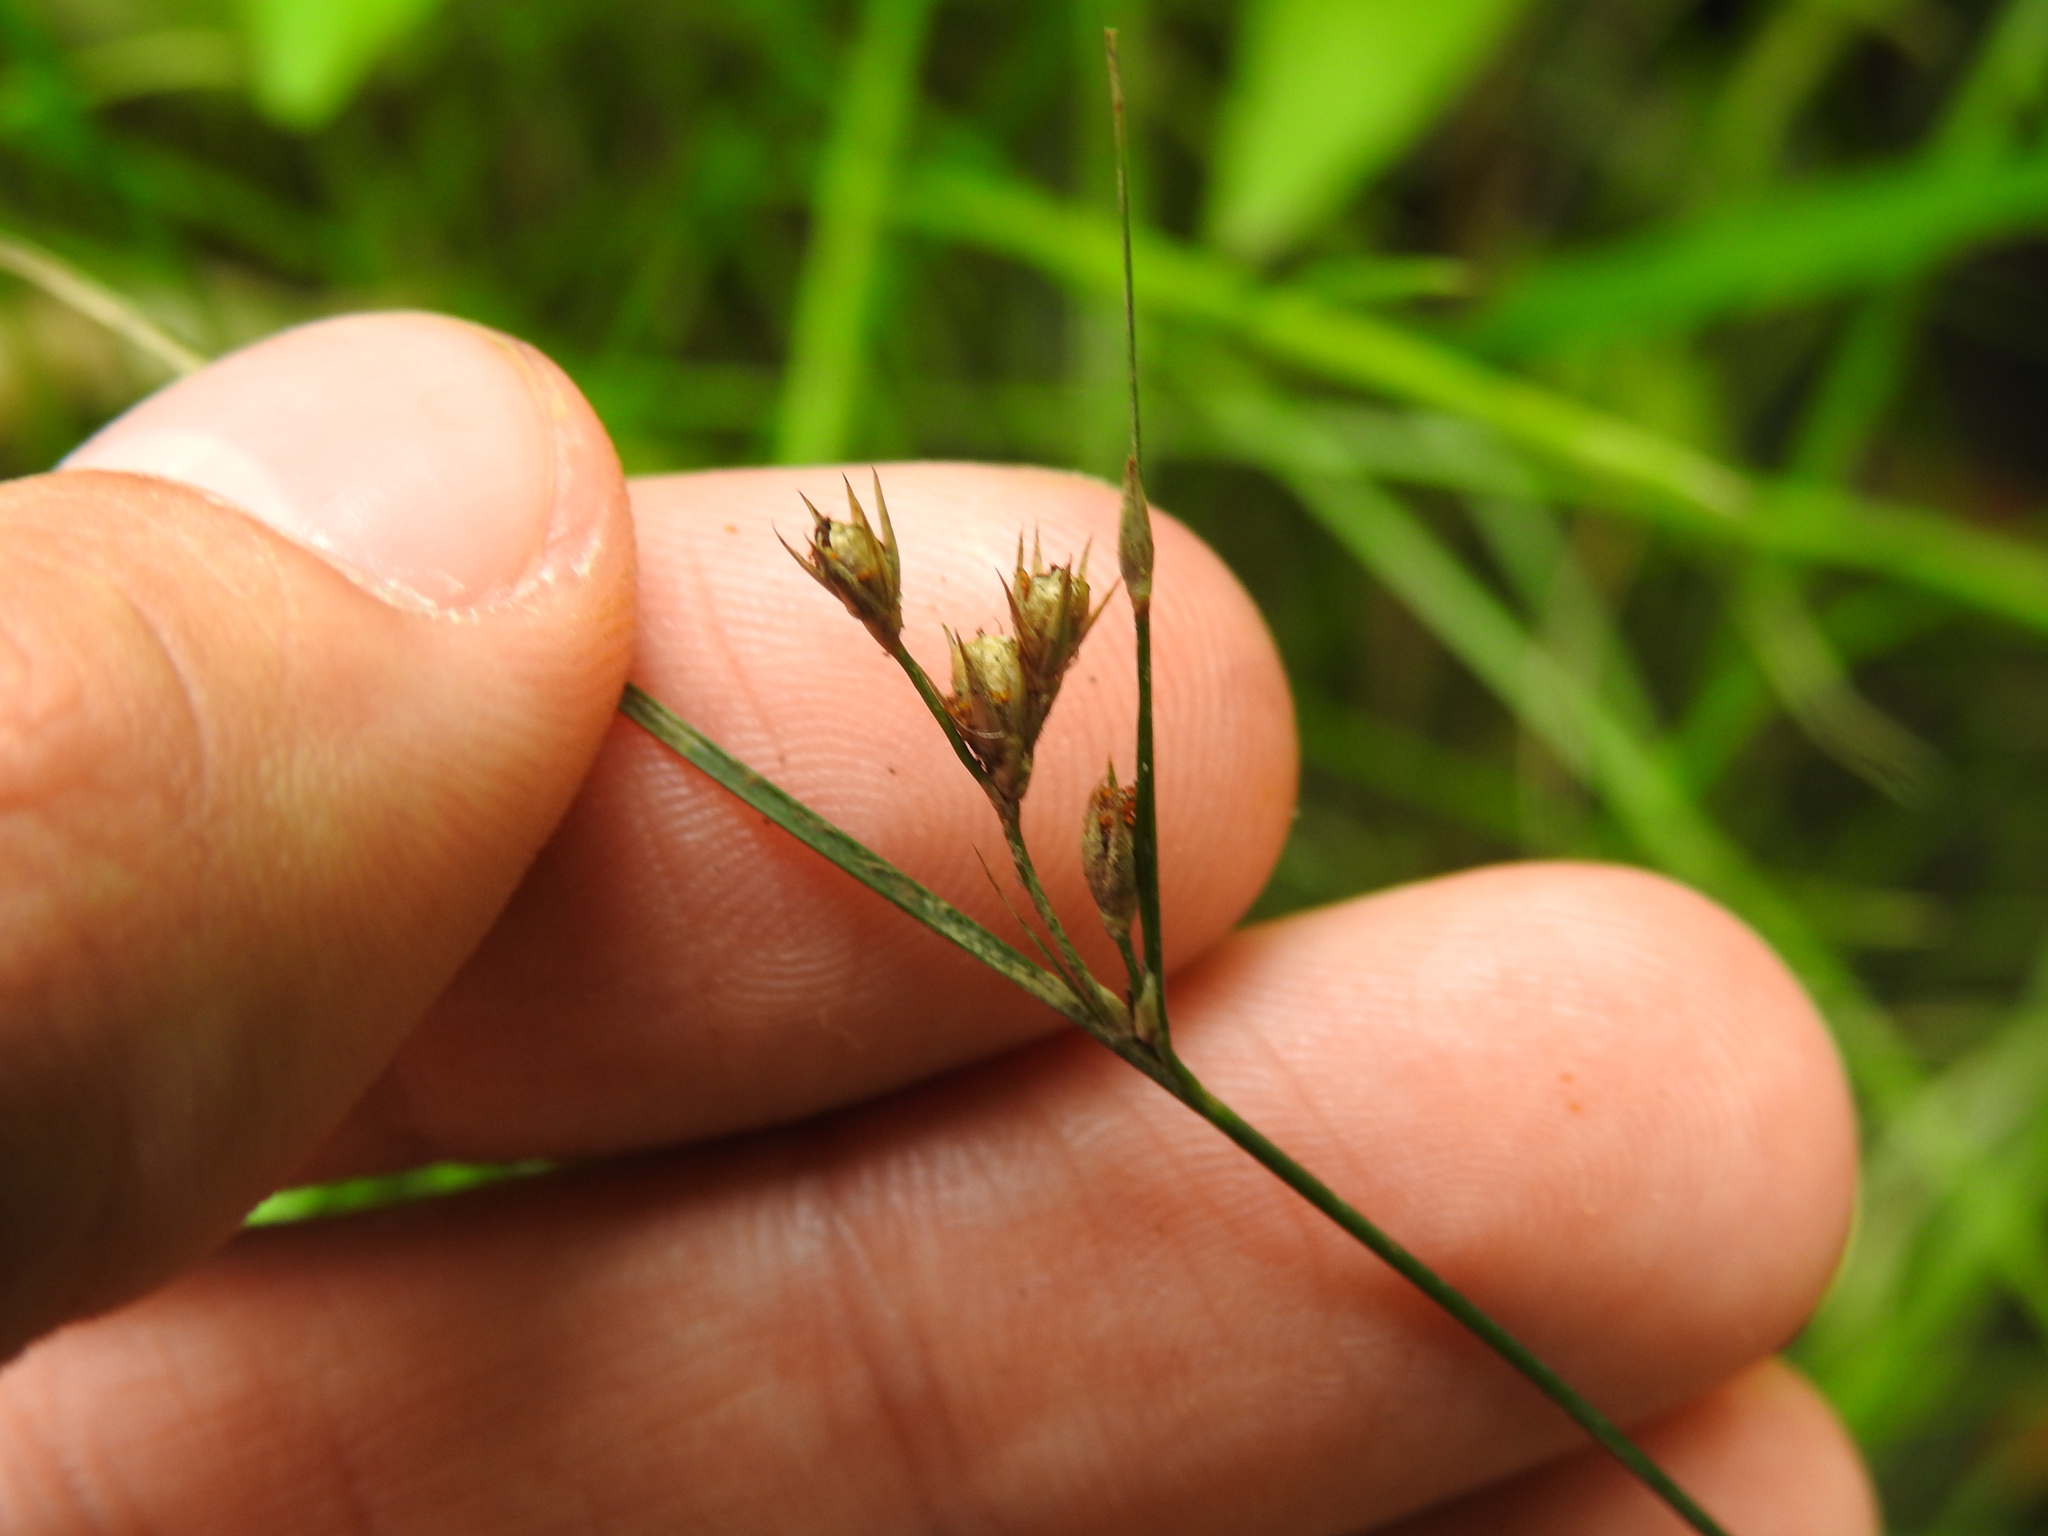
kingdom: Plantae
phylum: Tracheophyta
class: Liliopsida
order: Poales
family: Juncaceae
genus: Juncus
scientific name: Juncus tenuis
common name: Slender rush
